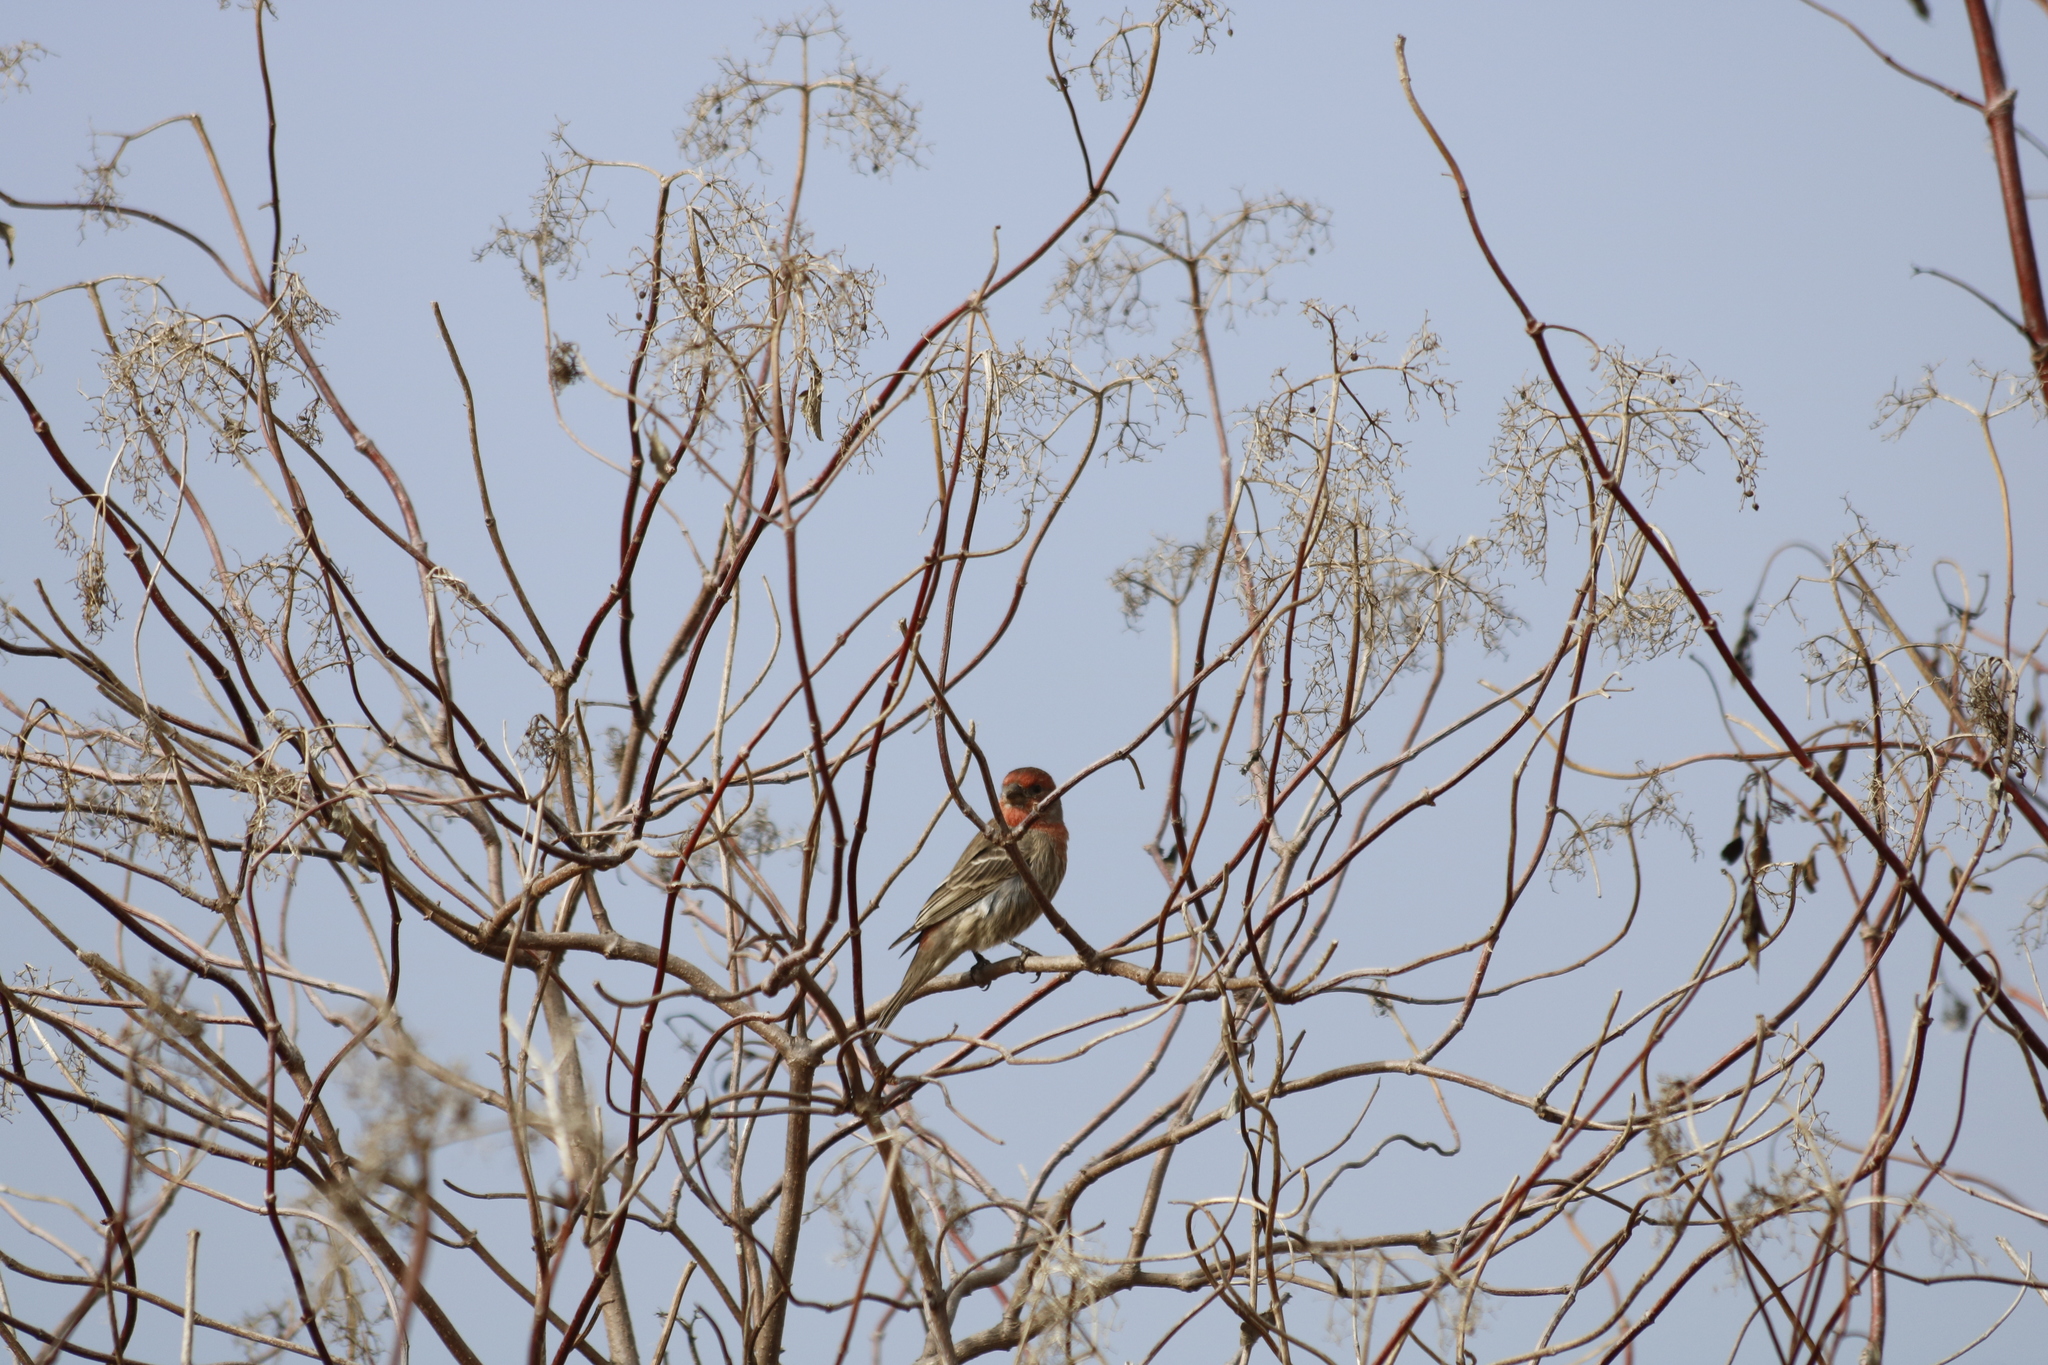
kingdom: Animalia
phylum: Chordata
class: Aves
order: Passeriformes
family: Fringillidae
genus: Haemorhous
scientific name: Haemorhous mexicanus
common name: House finch
